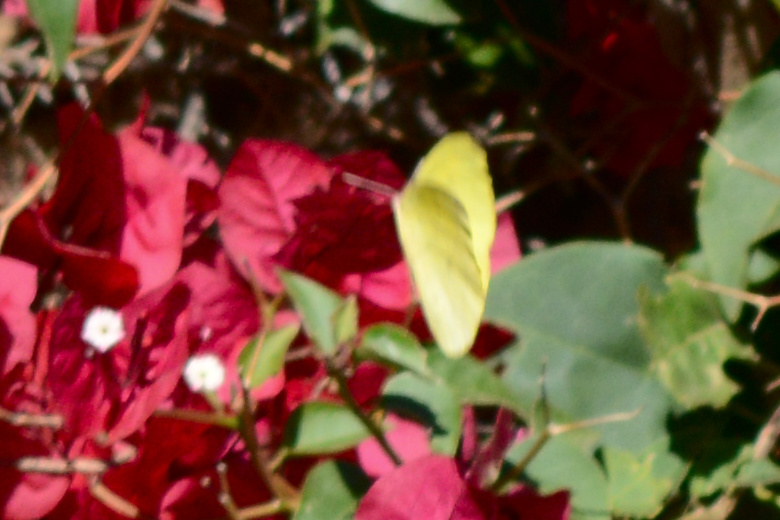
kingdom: Animalia
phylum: Arthropoda
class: Insecta
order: Lepidoptera
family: Pieridae
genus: Phoebis
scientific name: Phoebis sennae
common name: Cloudless sulphur
